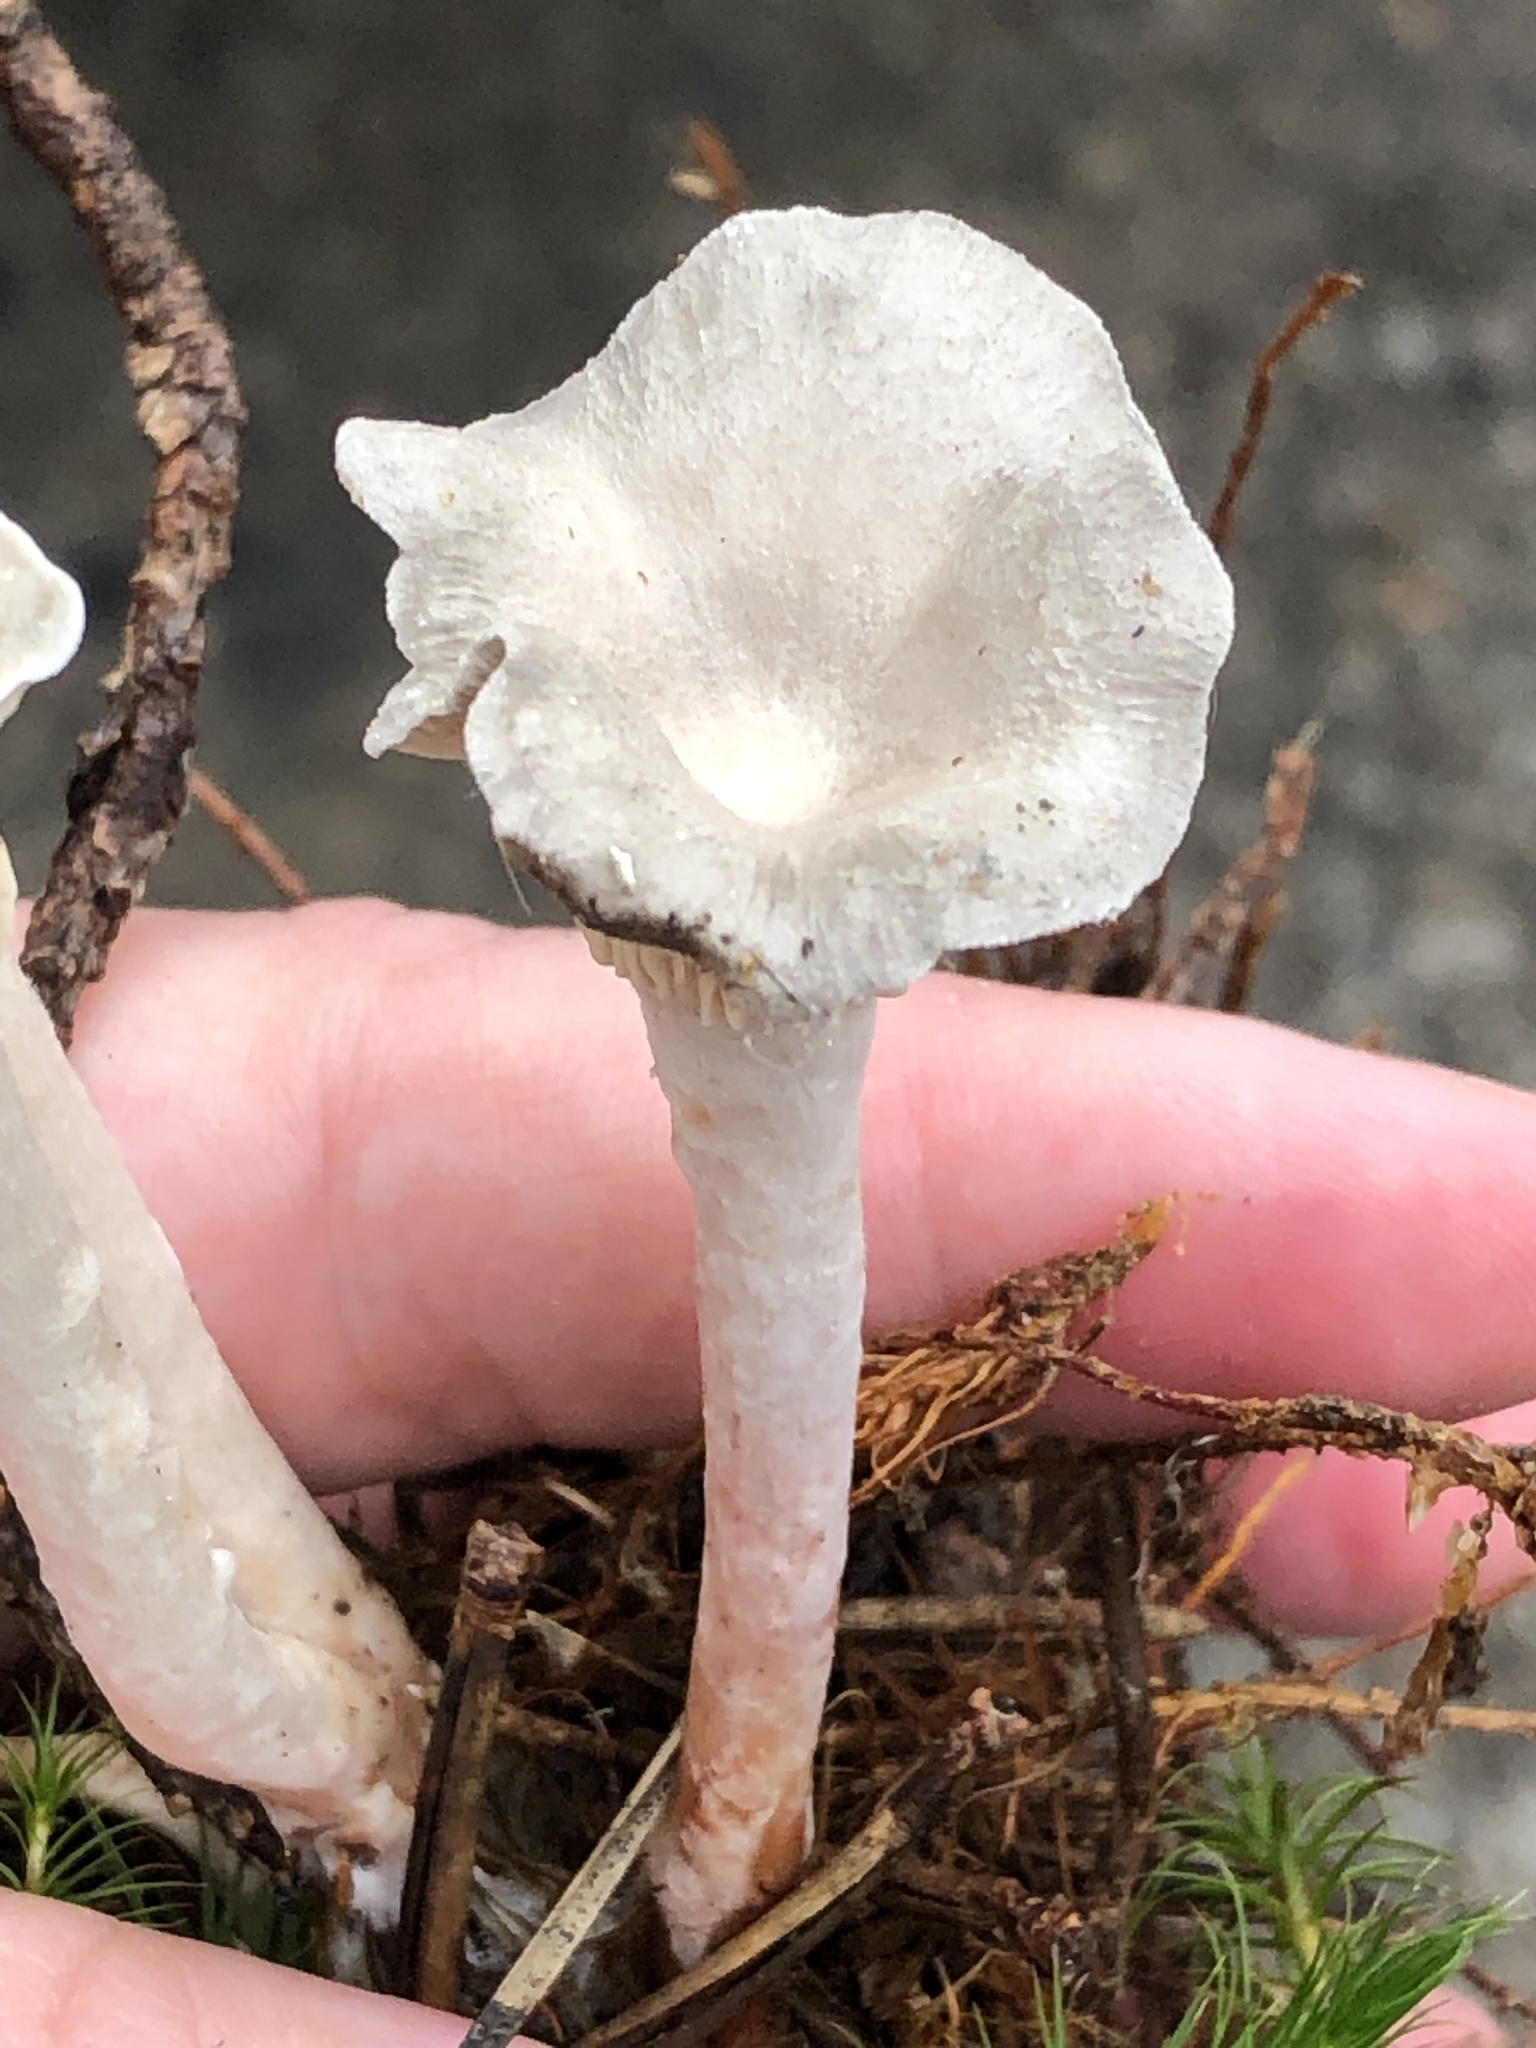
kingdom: Fungi
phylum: Basidiomycota
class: Agaricomycetes
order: Agaricales
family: Hygrophoraceae
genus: Cantharellula
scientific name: Cantharellula umbonata
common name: The humpback
